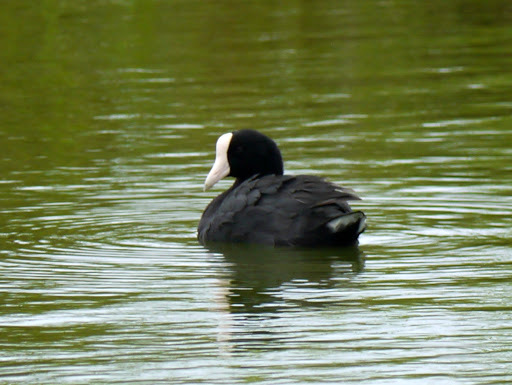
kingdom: Animalia
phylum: Chordata
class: Aves
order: Gruiformes
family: Rallidae
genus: Fulica
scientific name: Fulica alai
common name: Hawaiian coot
